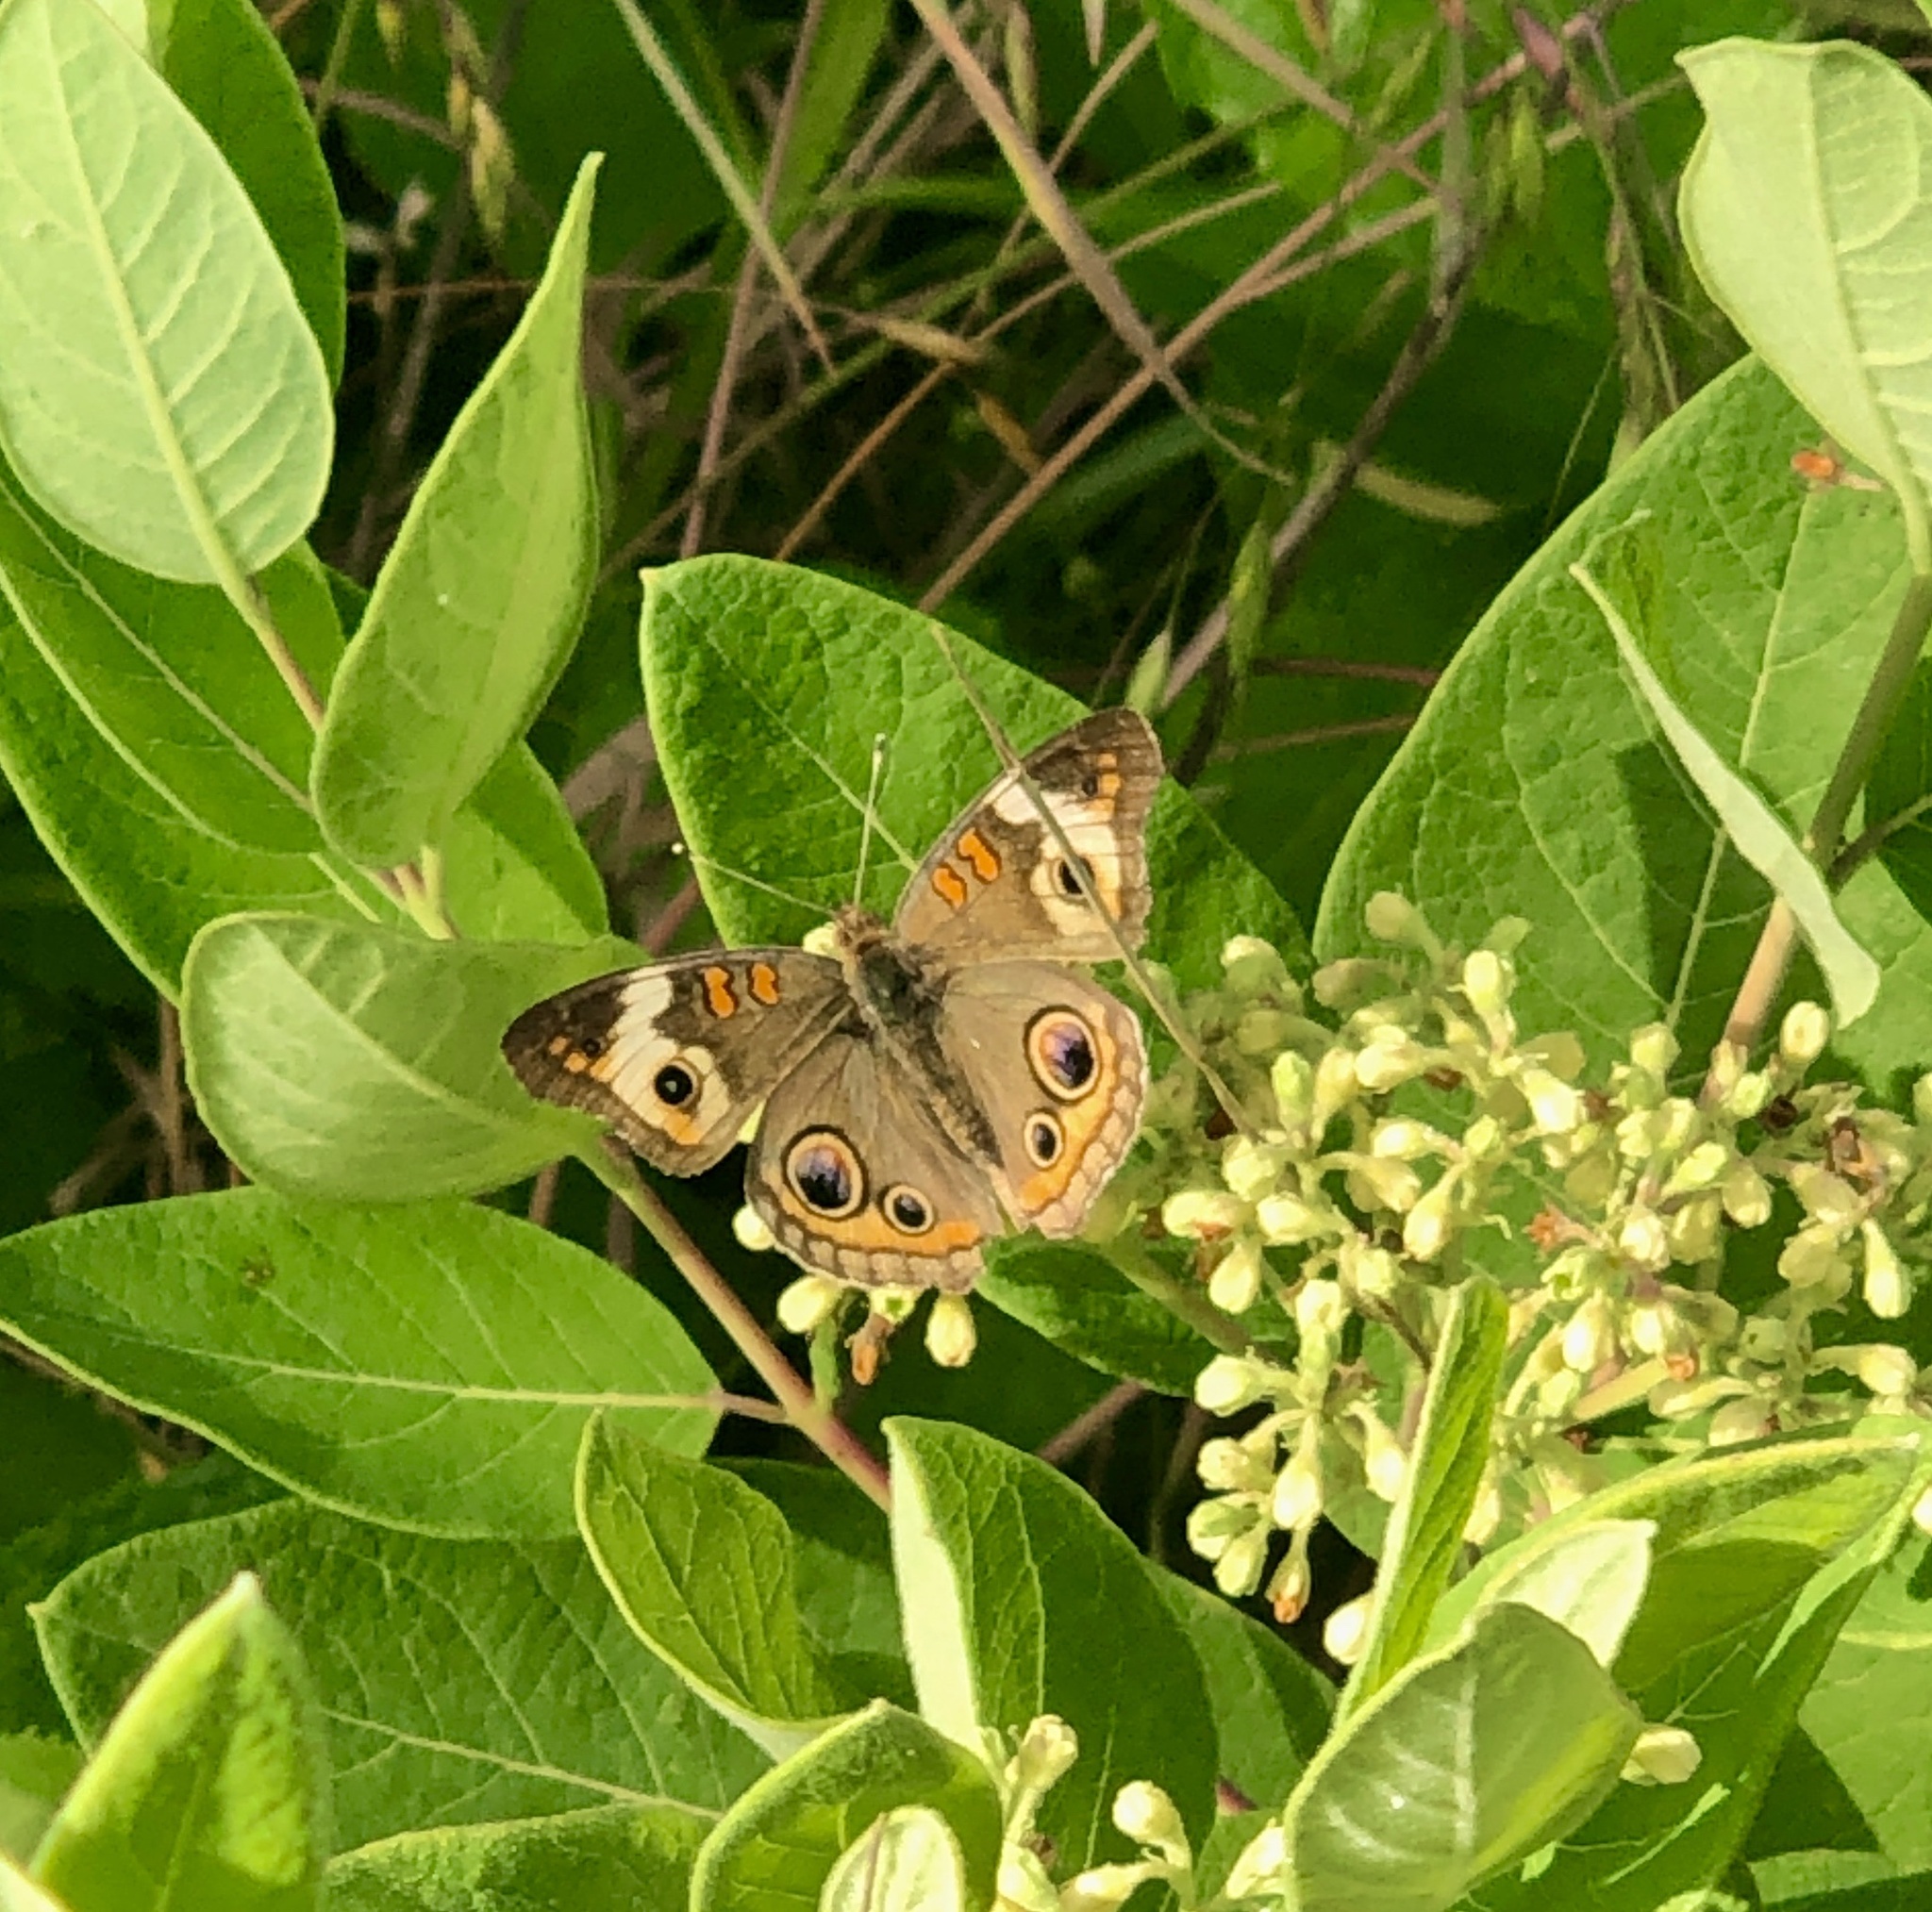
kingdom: Animalia
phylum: Arthropoda
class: Insecta
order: Lepidoptera
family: Nymphalidae
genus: Junonia
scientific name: Junonia coenia
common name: Common buckeye
